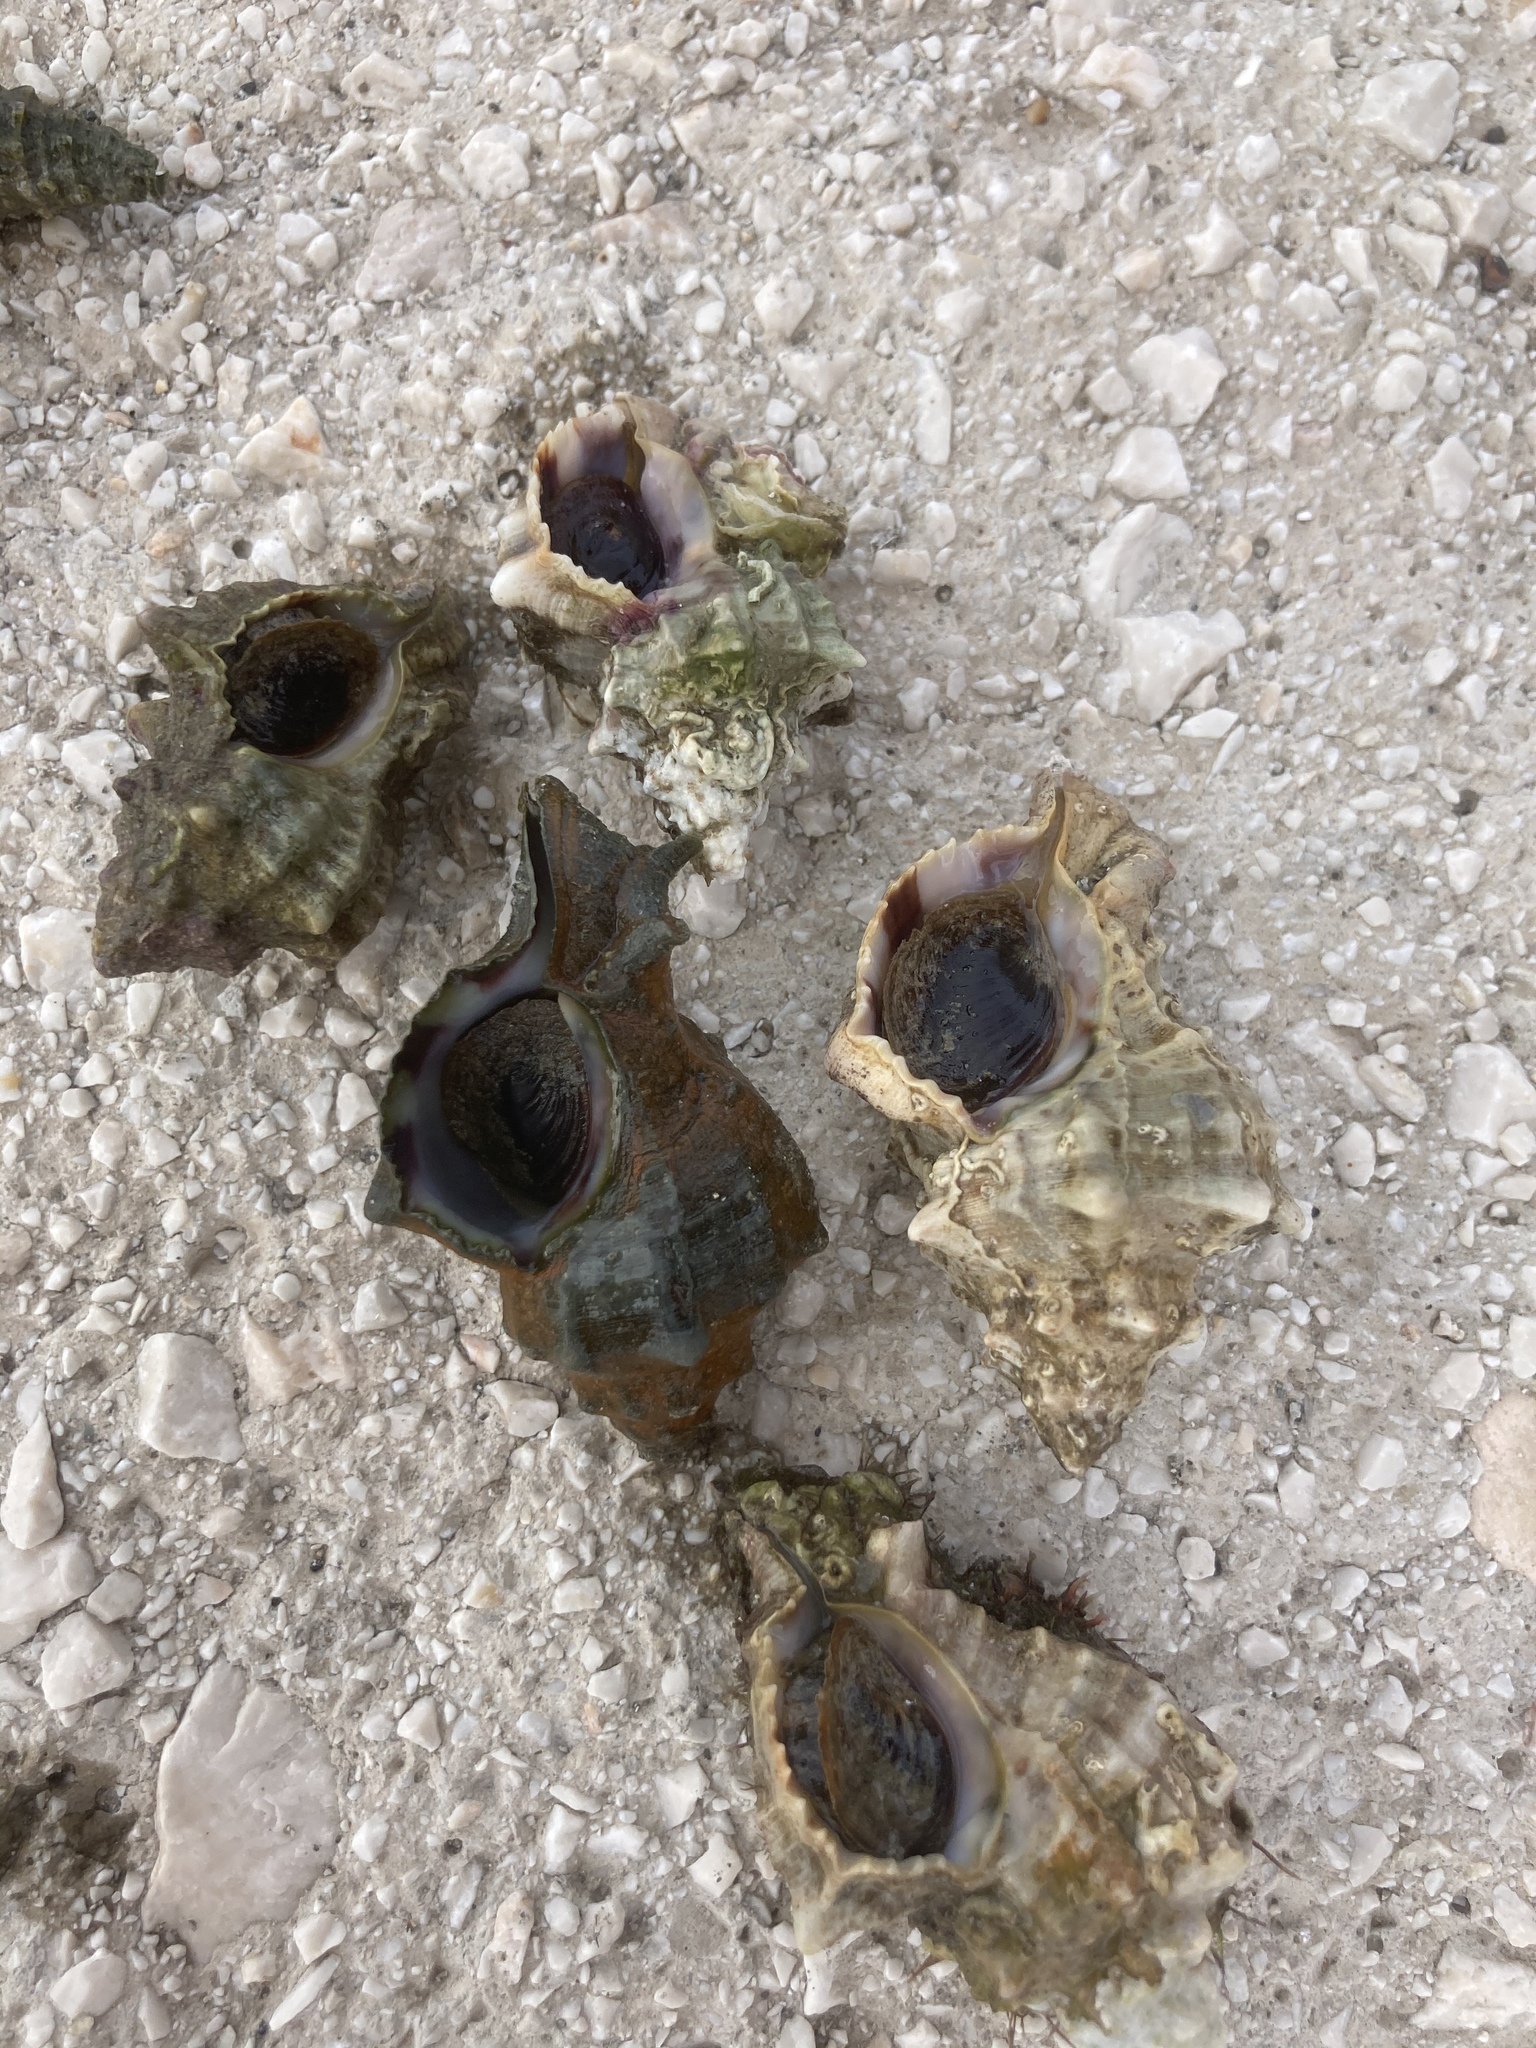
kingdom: Animalia
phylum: Mollusca
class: Gastropoda
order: Neogastropoda
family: Muricidae
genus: Hexaplex
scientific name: Hexaplex trunculus
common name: Banded dye-murex
